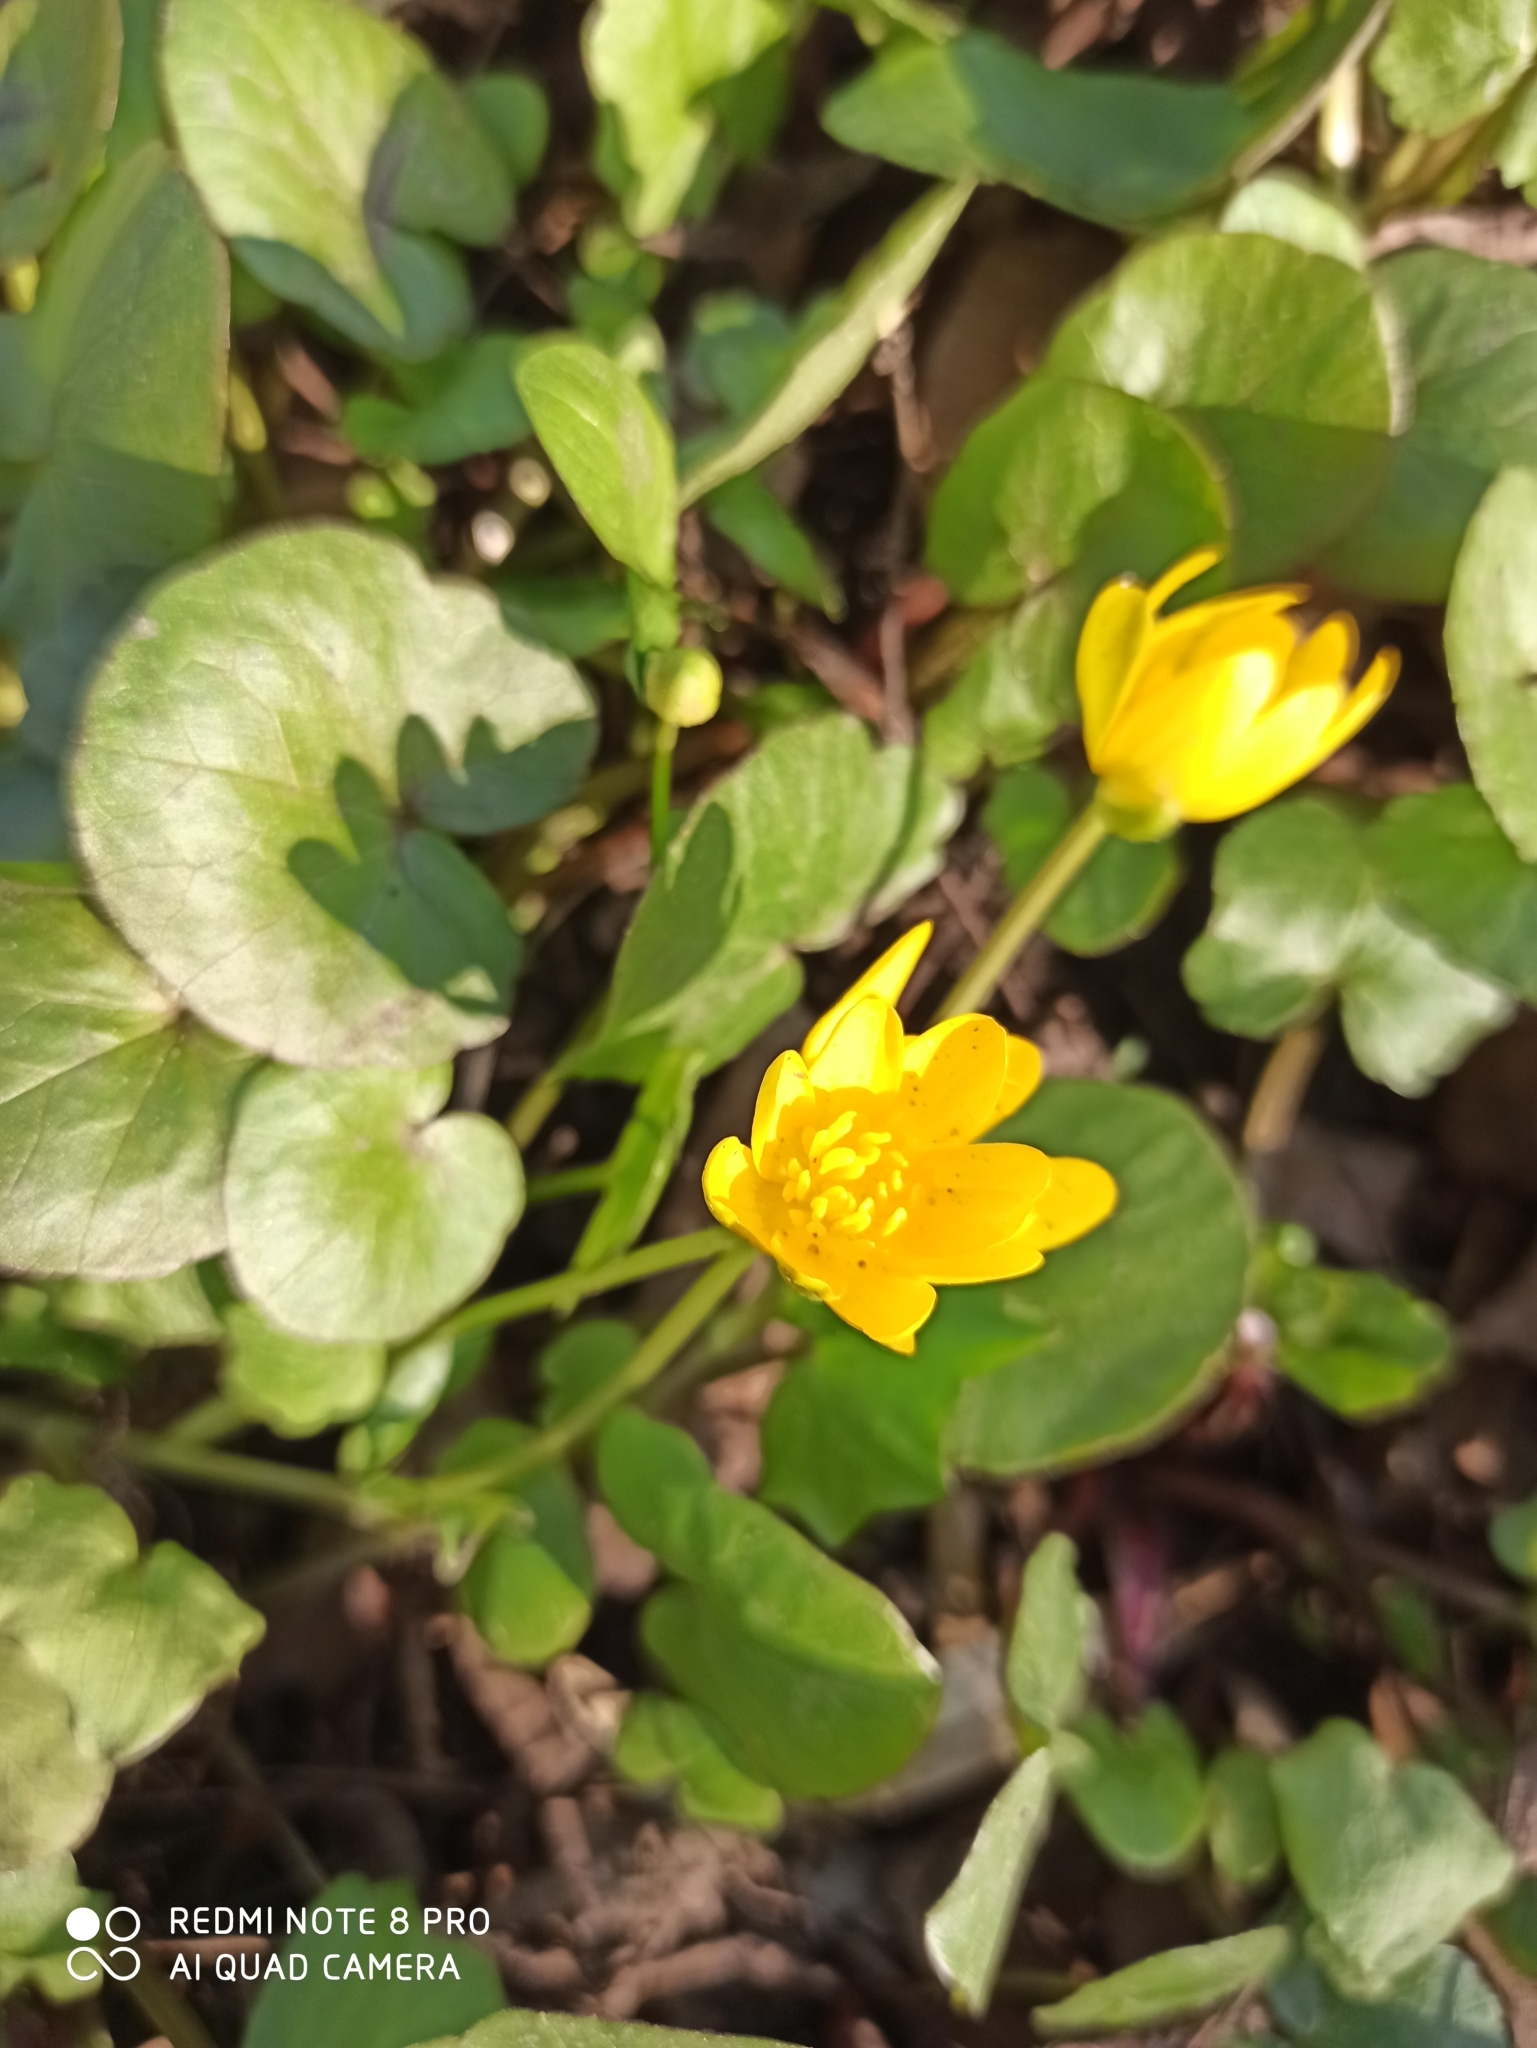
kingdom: Plantae
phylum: Tracheophyta
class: Magnoliopsida
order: Malpighiales
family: Violaceae
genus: Viola
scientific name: Viola odorata
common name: Sweet violet
